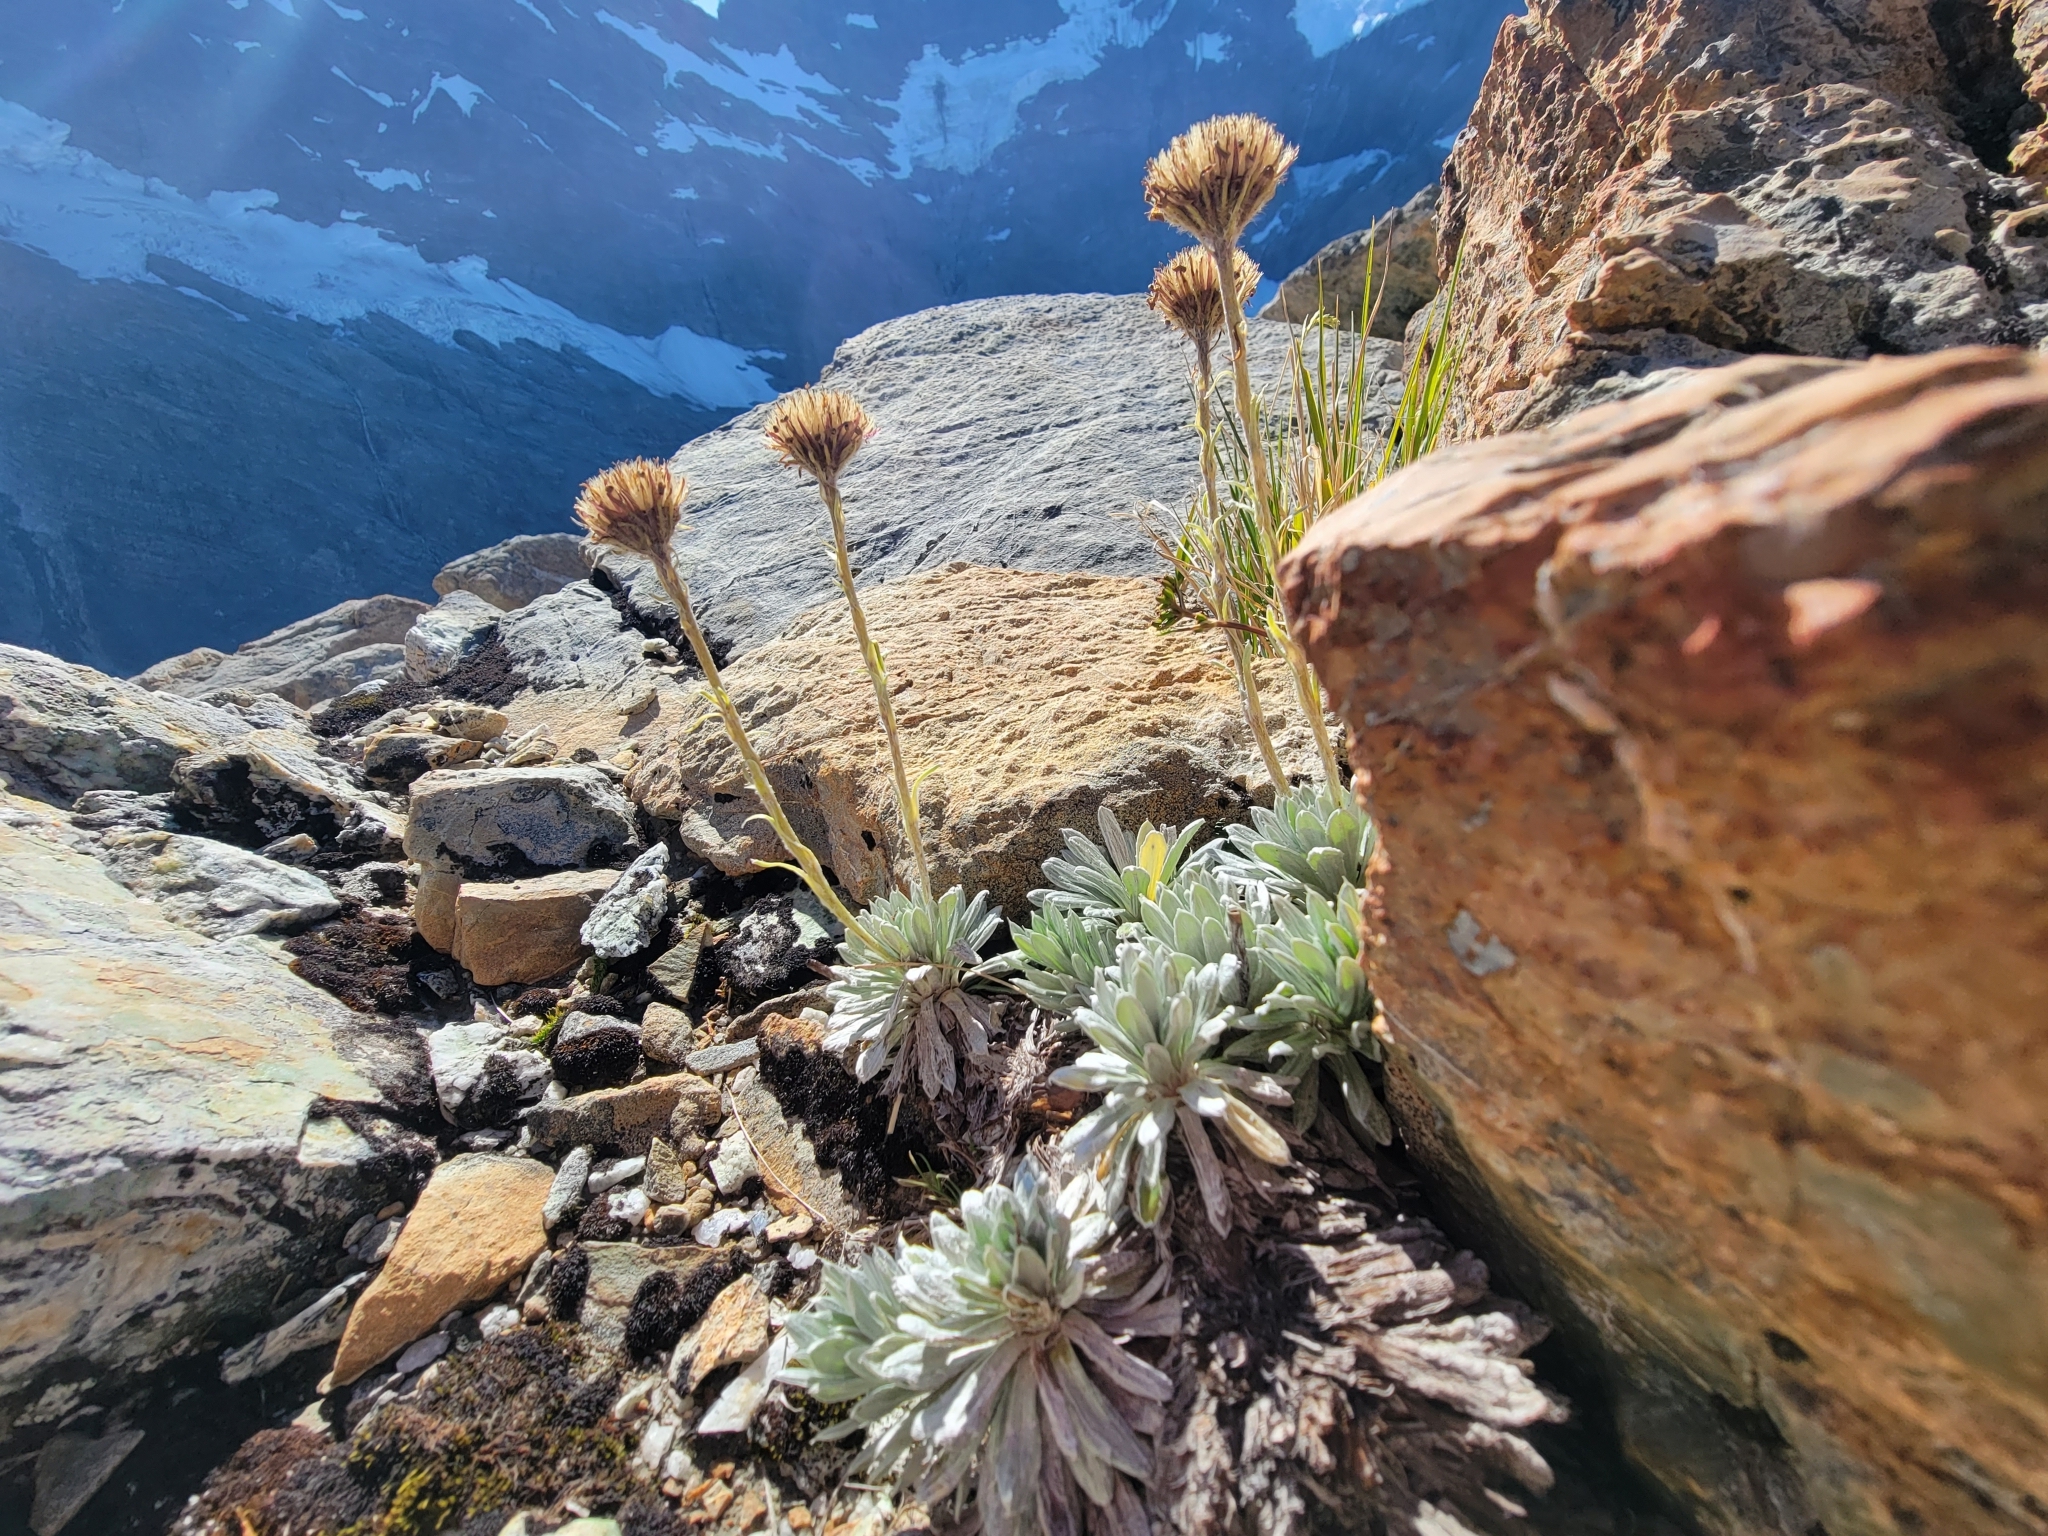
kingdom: Plantae
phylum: Tracheophyta
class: Magnoliopsida
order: Asterales
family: Asteraceae
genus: Celmisia
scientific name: Celmisia hectorii
